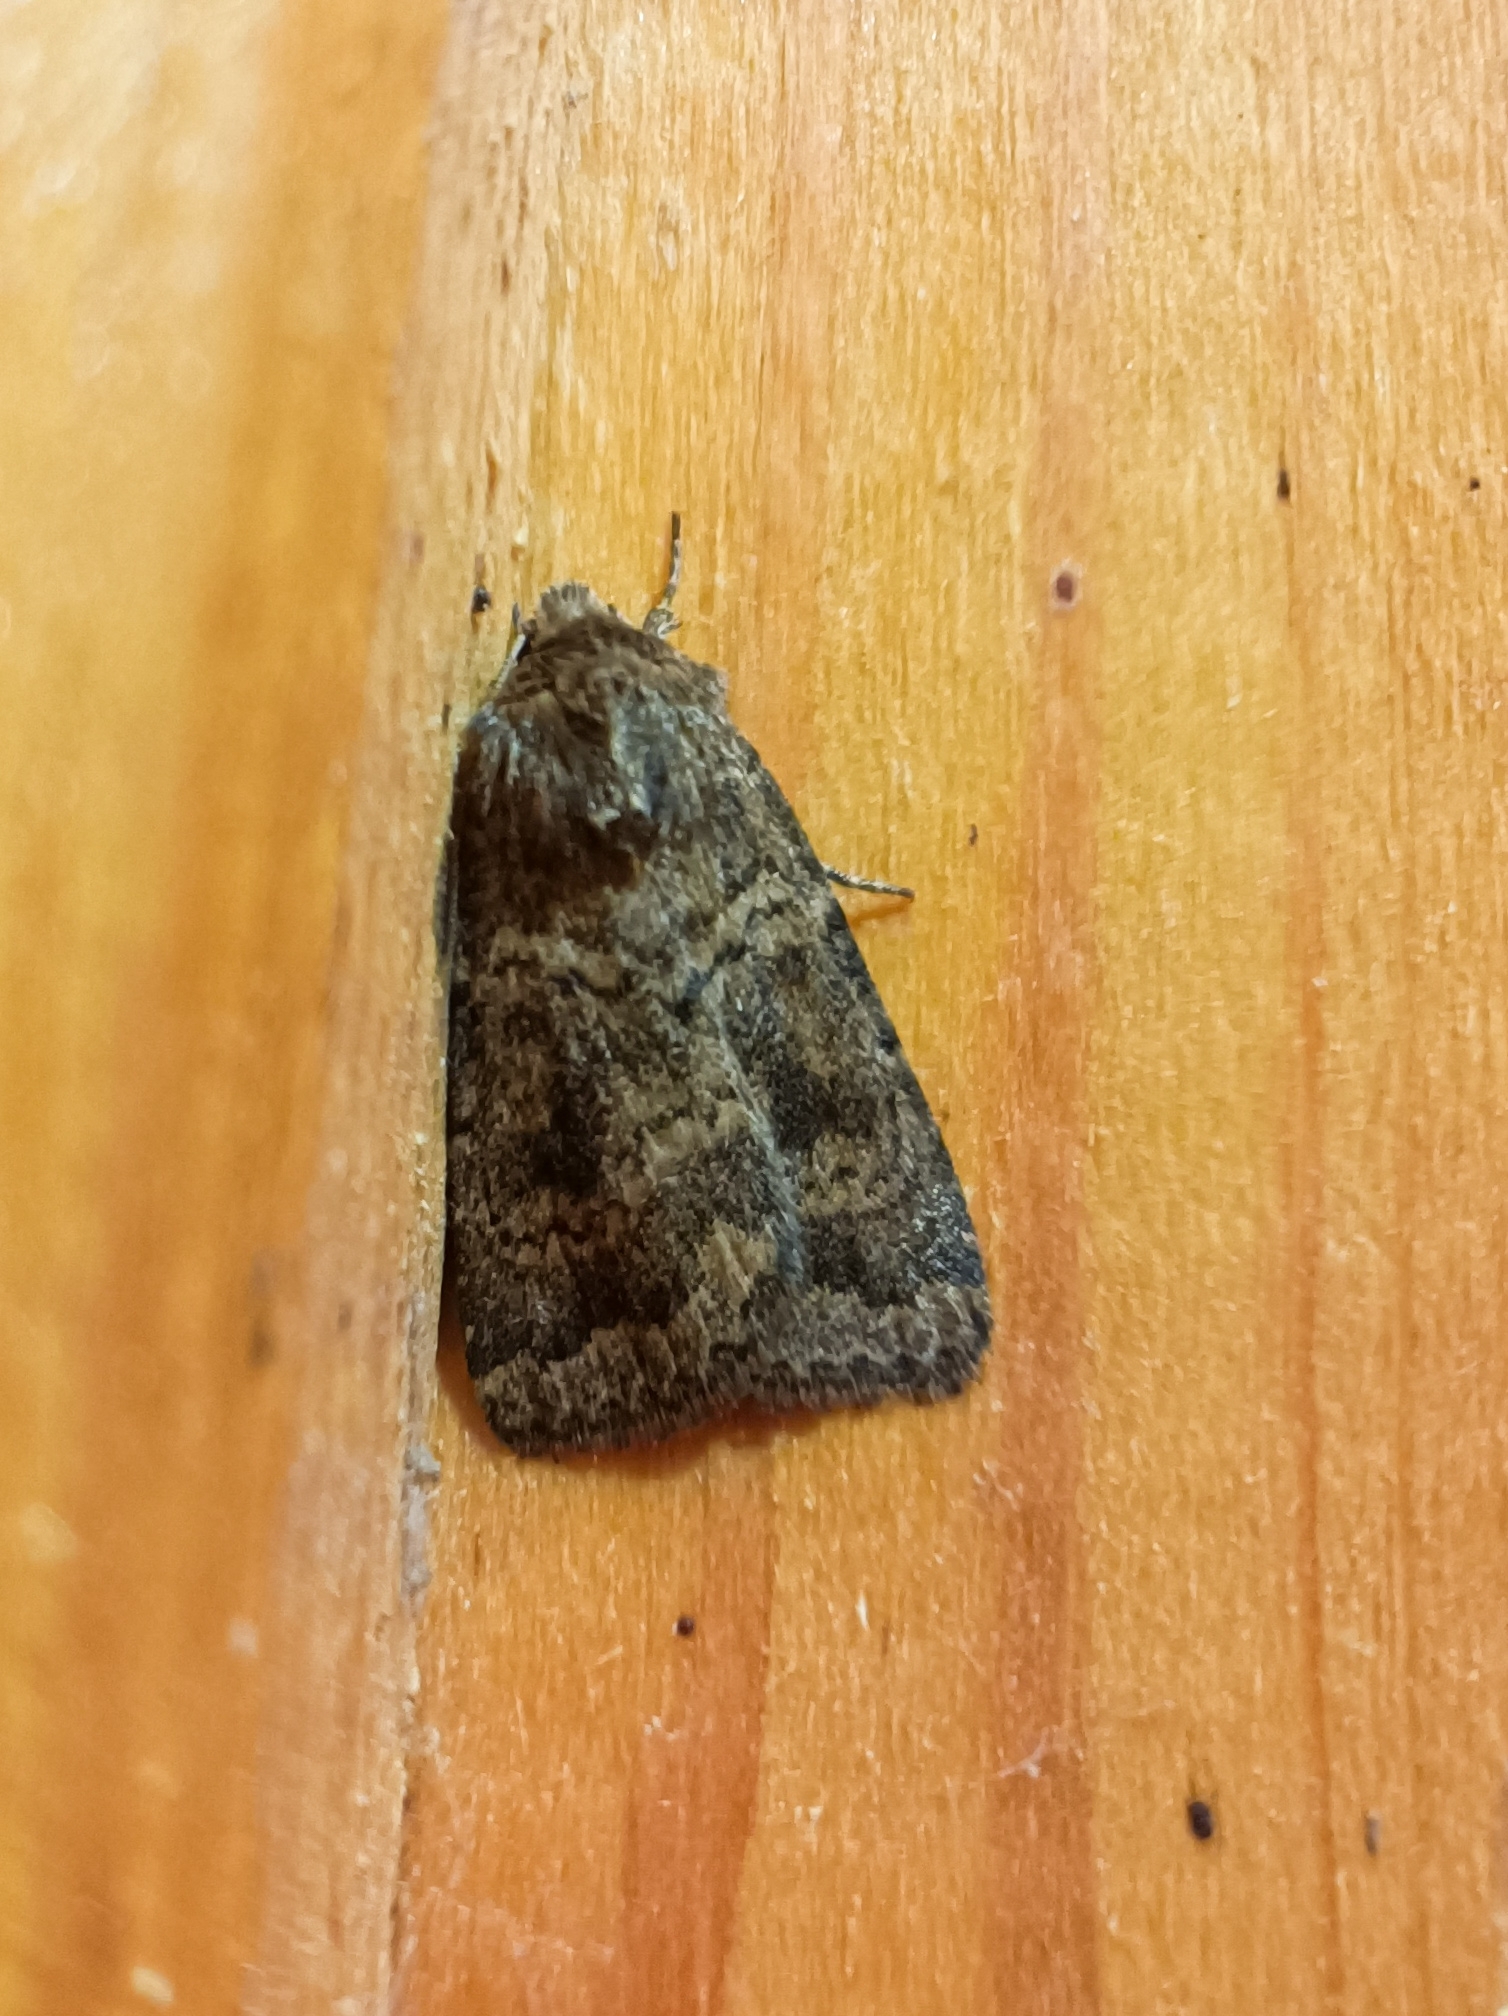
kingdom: Animalia
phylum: Arthropoda
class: Insecta
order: Lepidoptera
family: Noctuidae
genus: Caradrina
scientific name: Caradrina morpheus
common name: Mottled rustic
